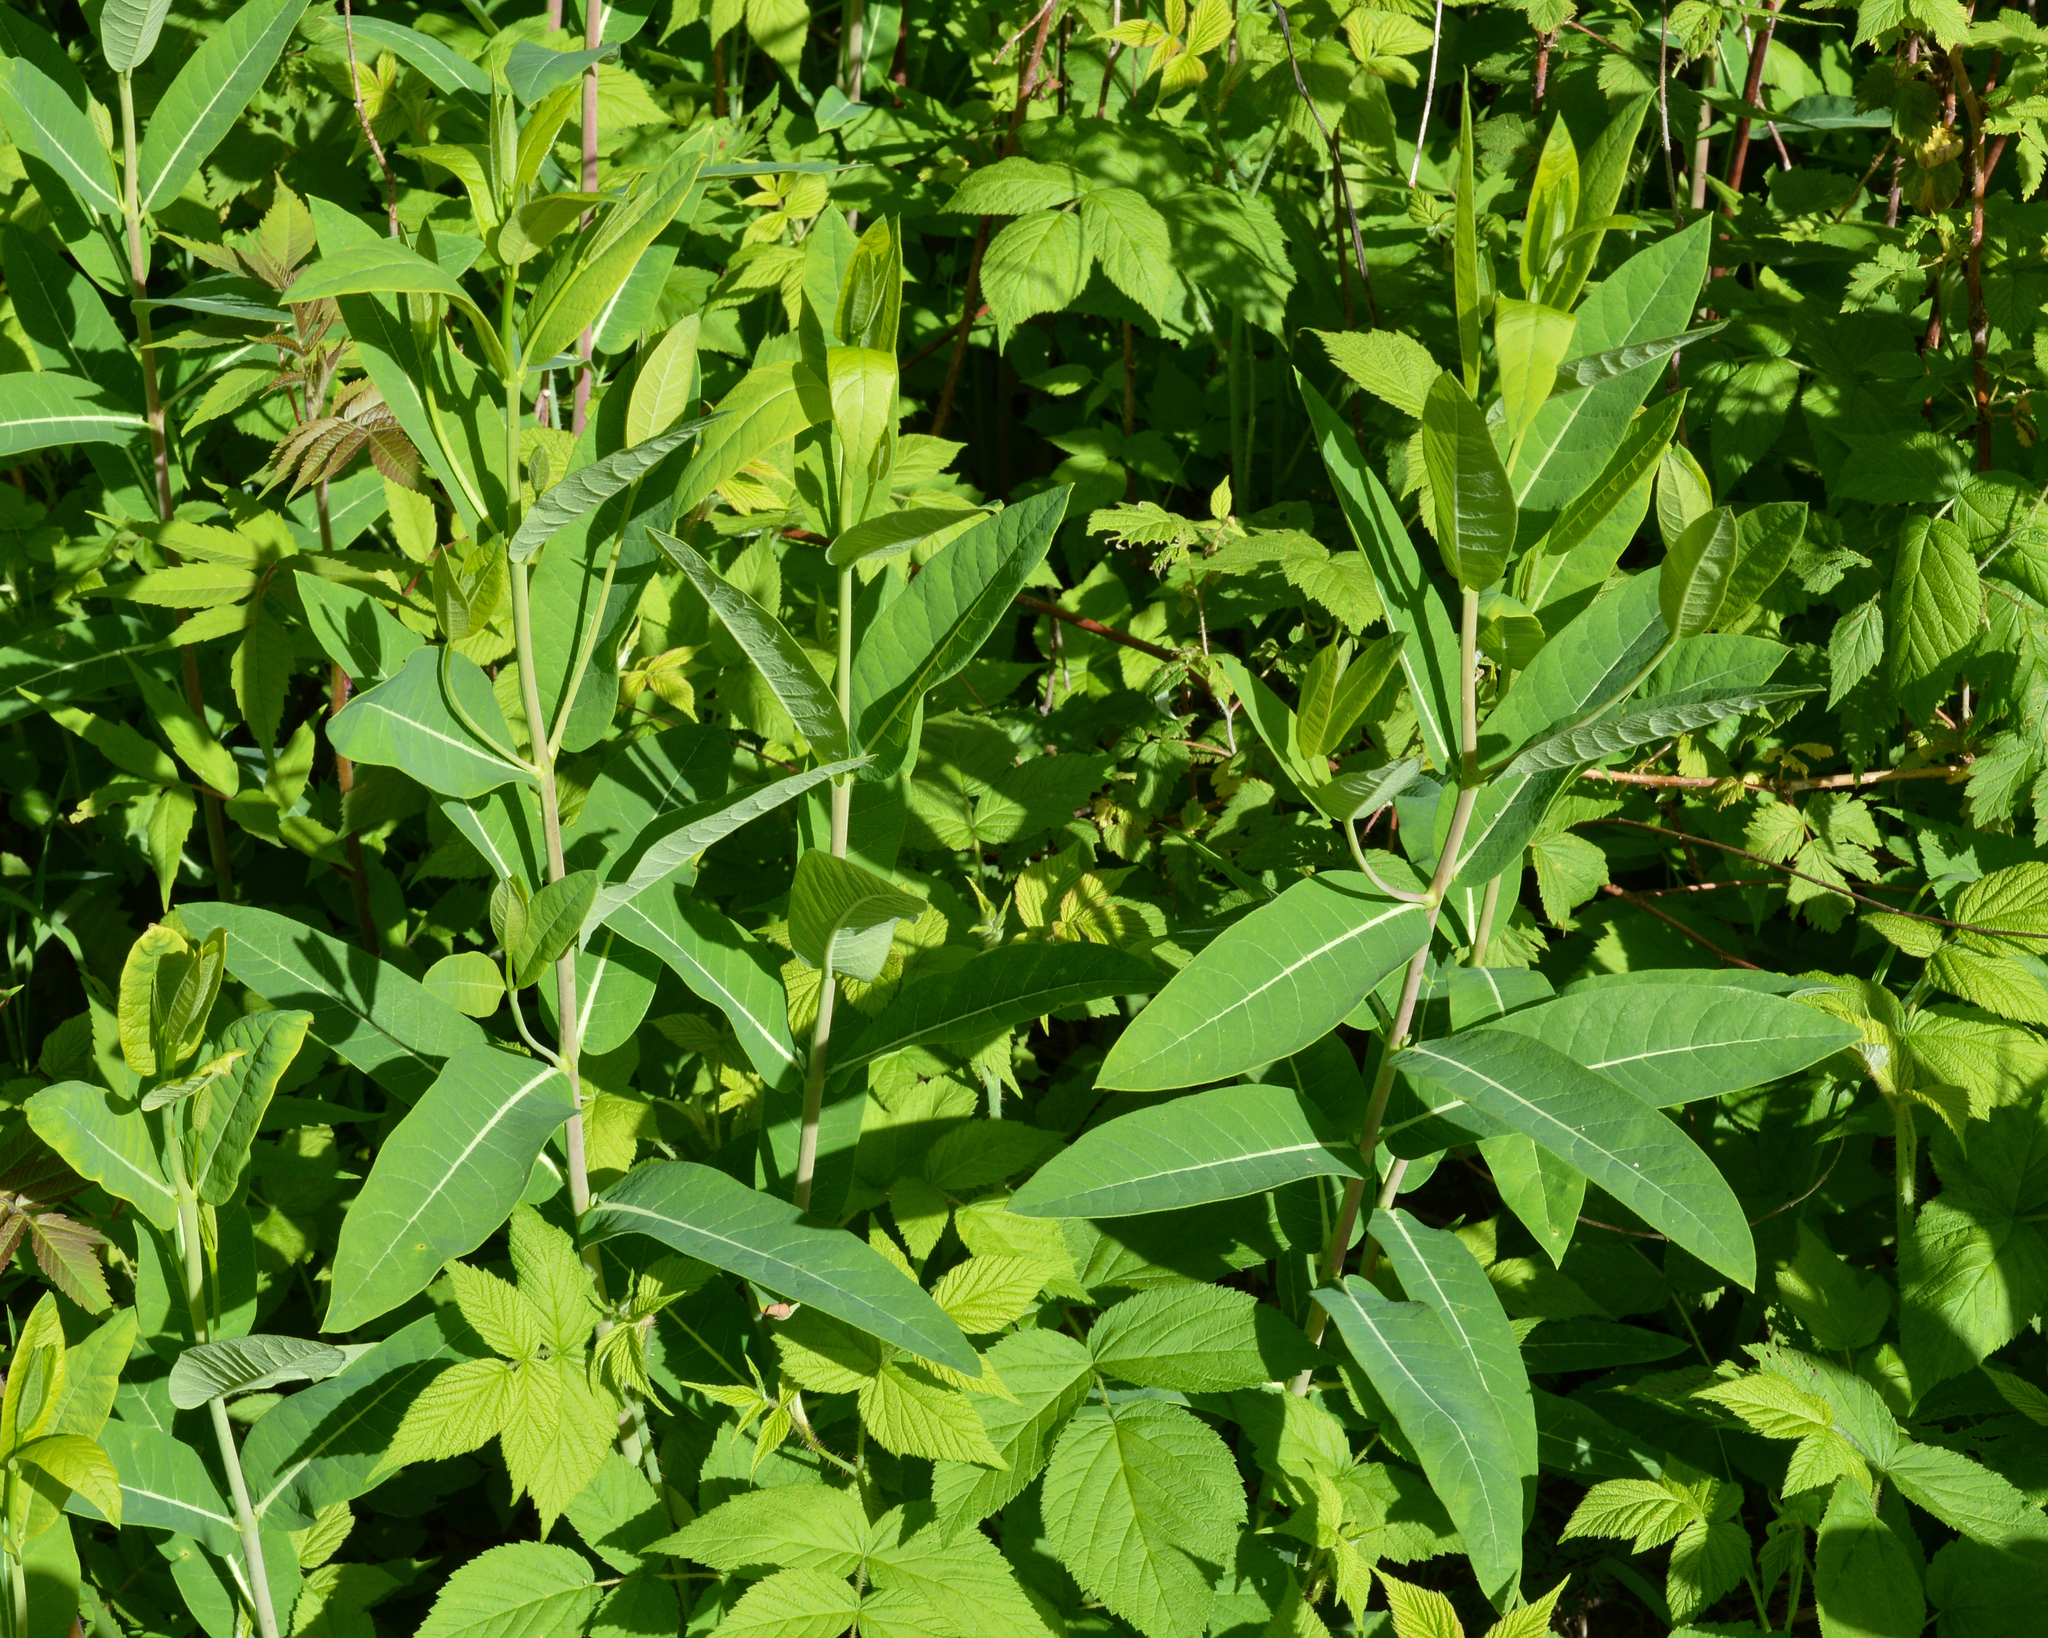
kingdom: Plantae
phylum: Tracheophyta
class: Magnoliopsida
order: Gentianales
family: Apocynaceae
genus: Apocynum
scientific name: Apocynum cannabinum
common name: Hemp dogbane
